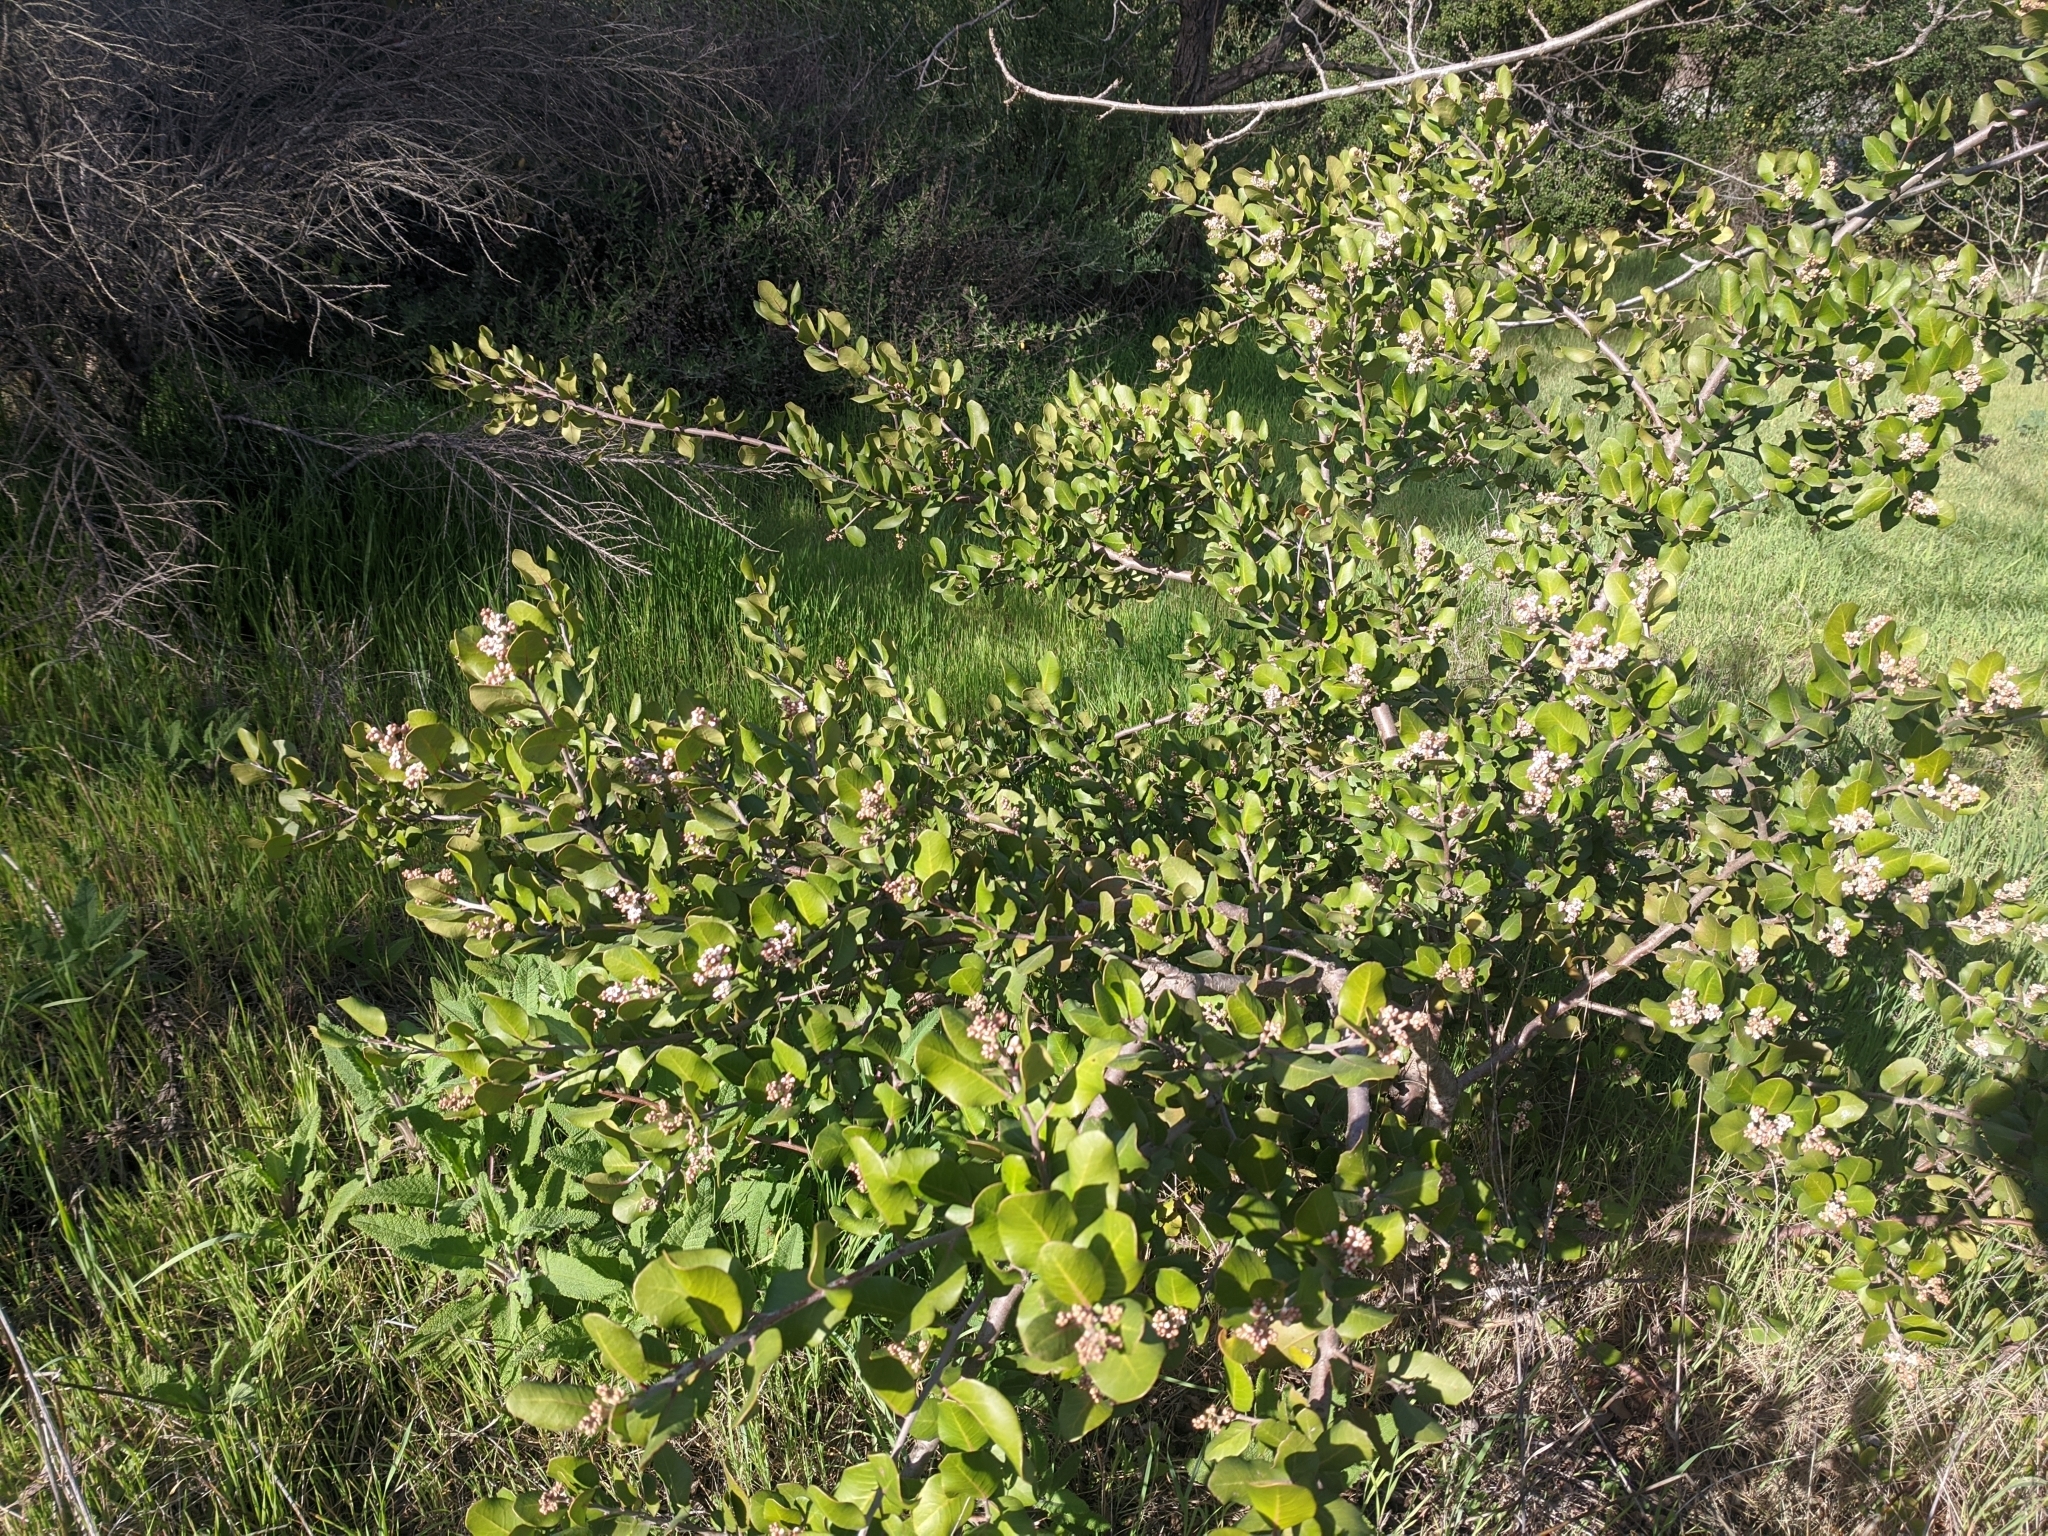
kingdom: Plantae
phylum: Tracheophyta
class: Magnoliopsida
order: Sapindales
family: Anacardiaceae
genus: Rhus
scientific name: Rhus integrifolia
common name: Lemonade sumac
